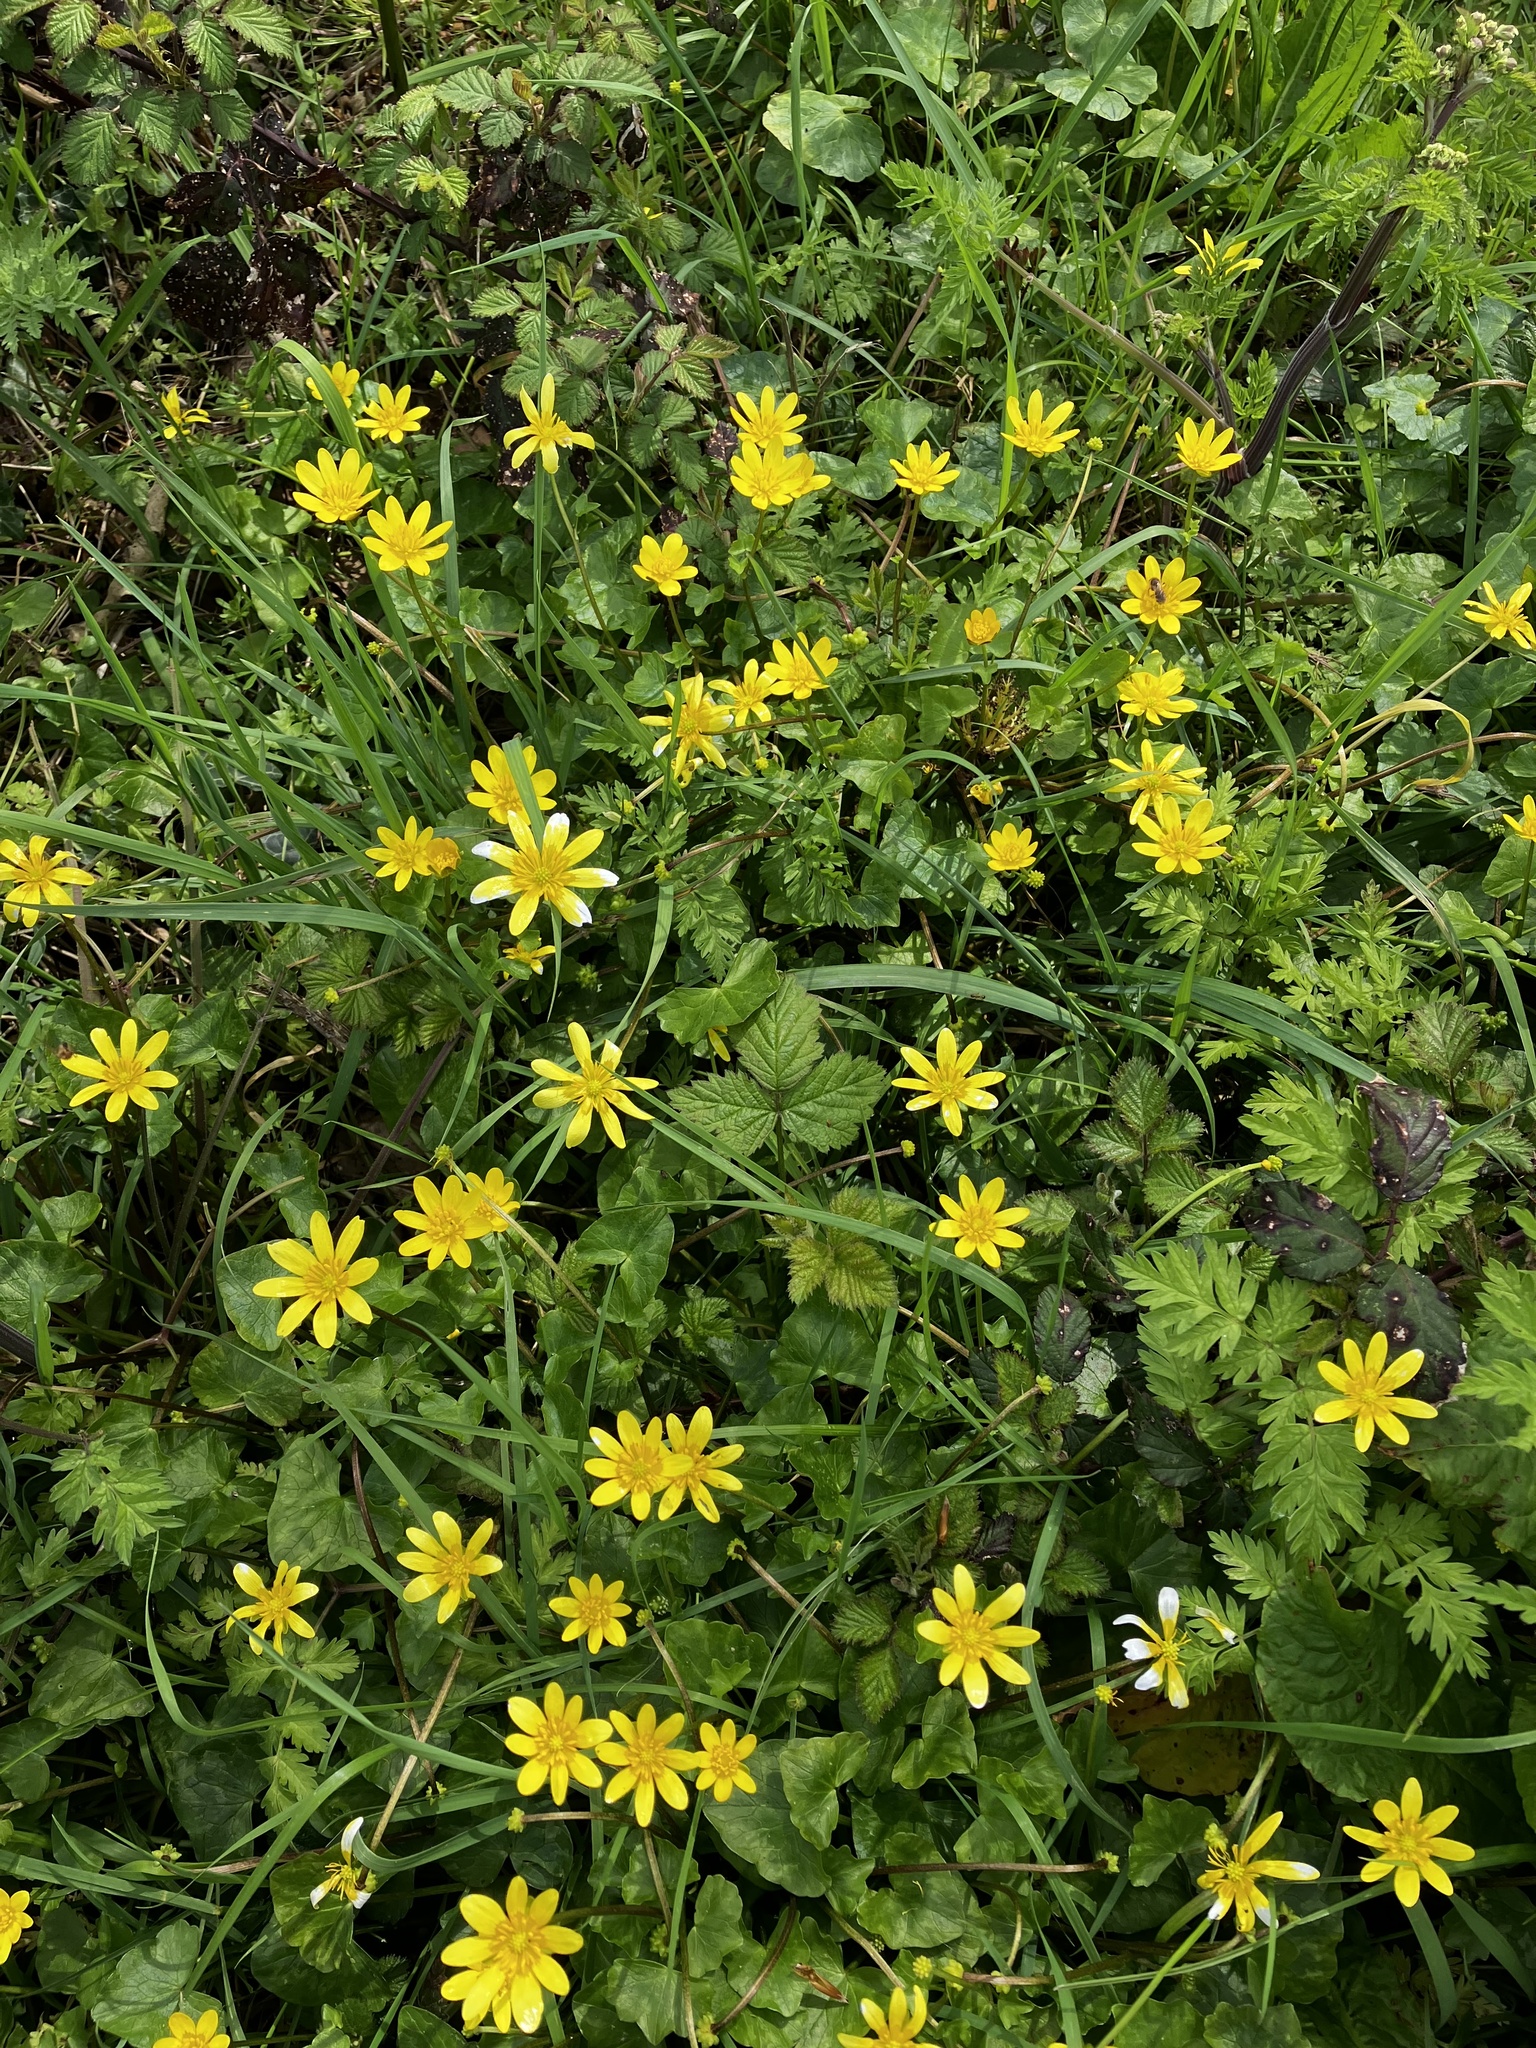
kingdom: Plantae
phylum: Tracheophyta
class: Magnoliopsida
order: Ranunculales
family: Ranunculaceae
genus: Ficaria
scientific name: Ficaria verna
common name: Lesser celandine
